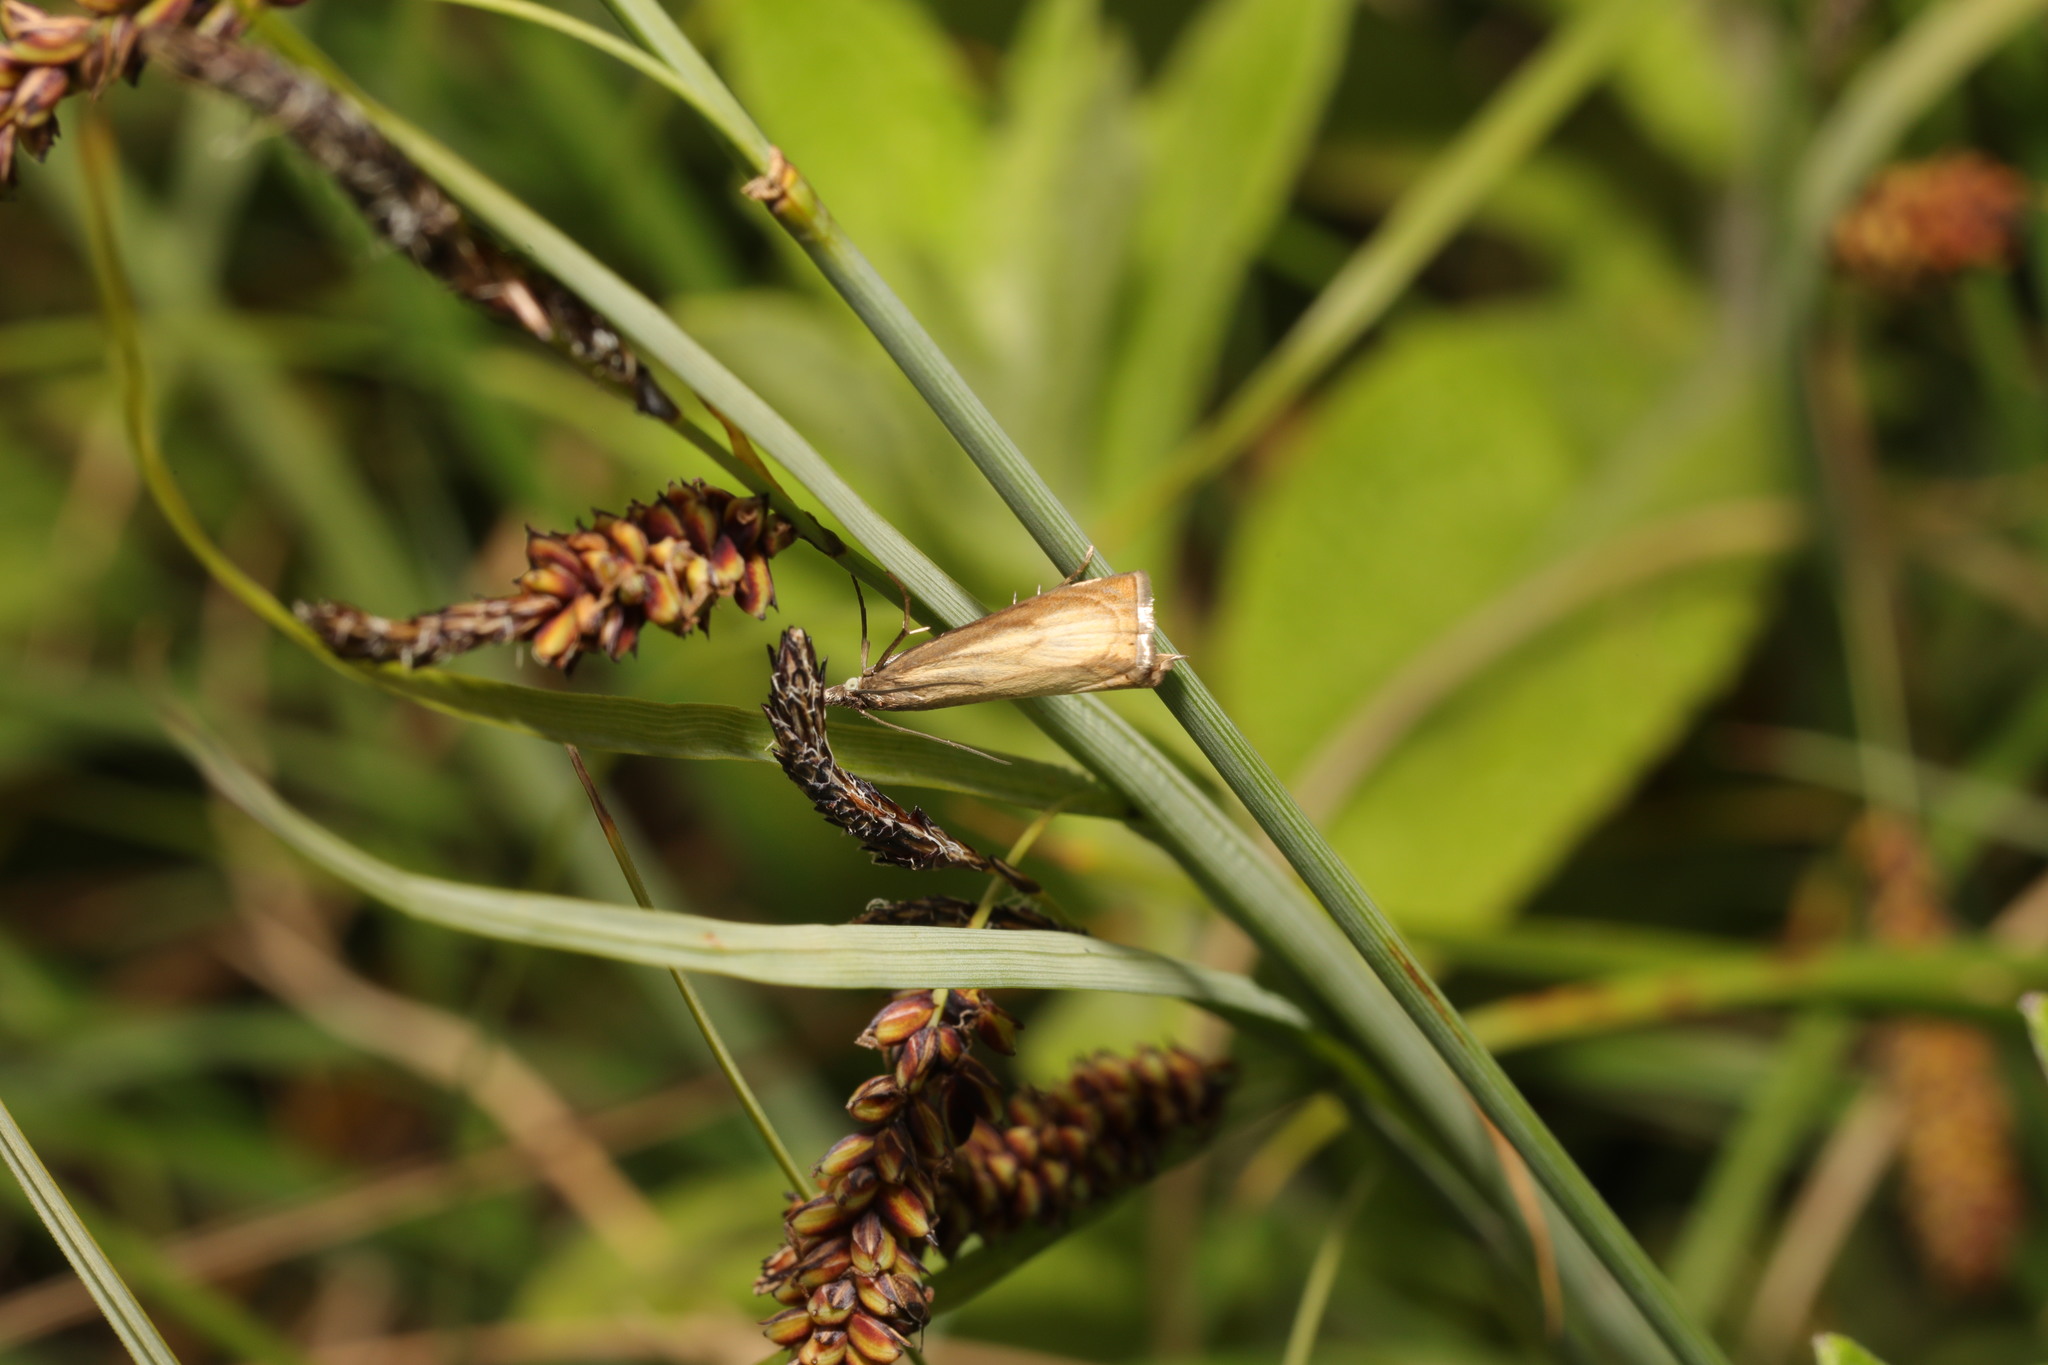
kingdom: Animalia
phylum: Arthropoda
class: Insecta
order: Lepidoptera
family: Crambidae
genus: Chrysoteuchia
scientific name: Chrysoteuchia culmella
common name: Garden grass-veneer
